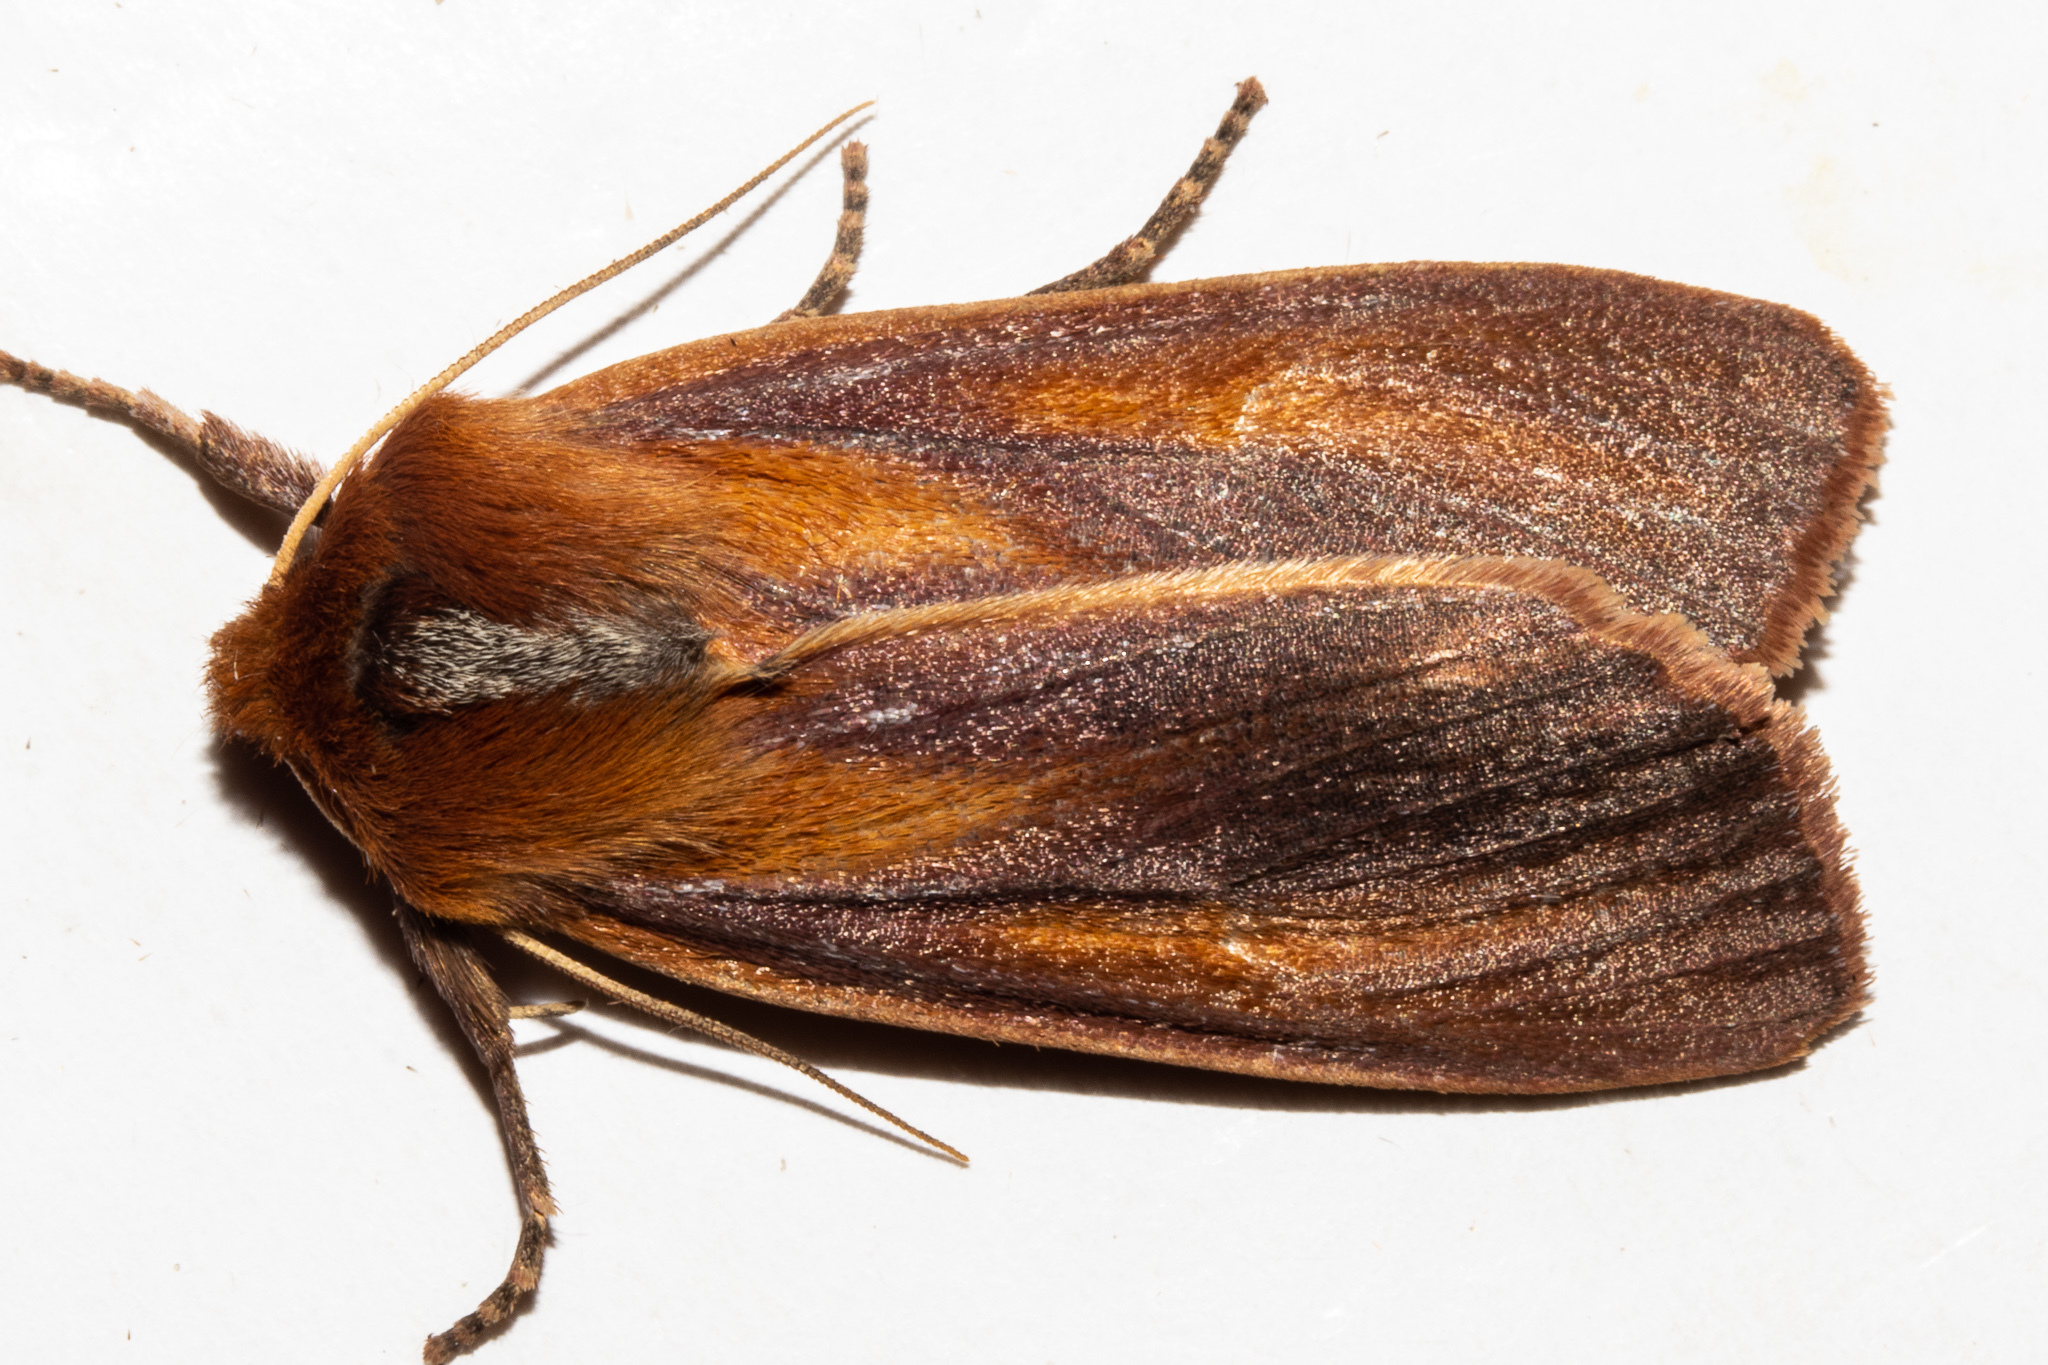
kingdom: Animalia
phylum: Arthropoda
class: Insecta
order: Lepidoptera
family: Noctuidae
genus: Ichneutica
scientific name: Ichneutica
